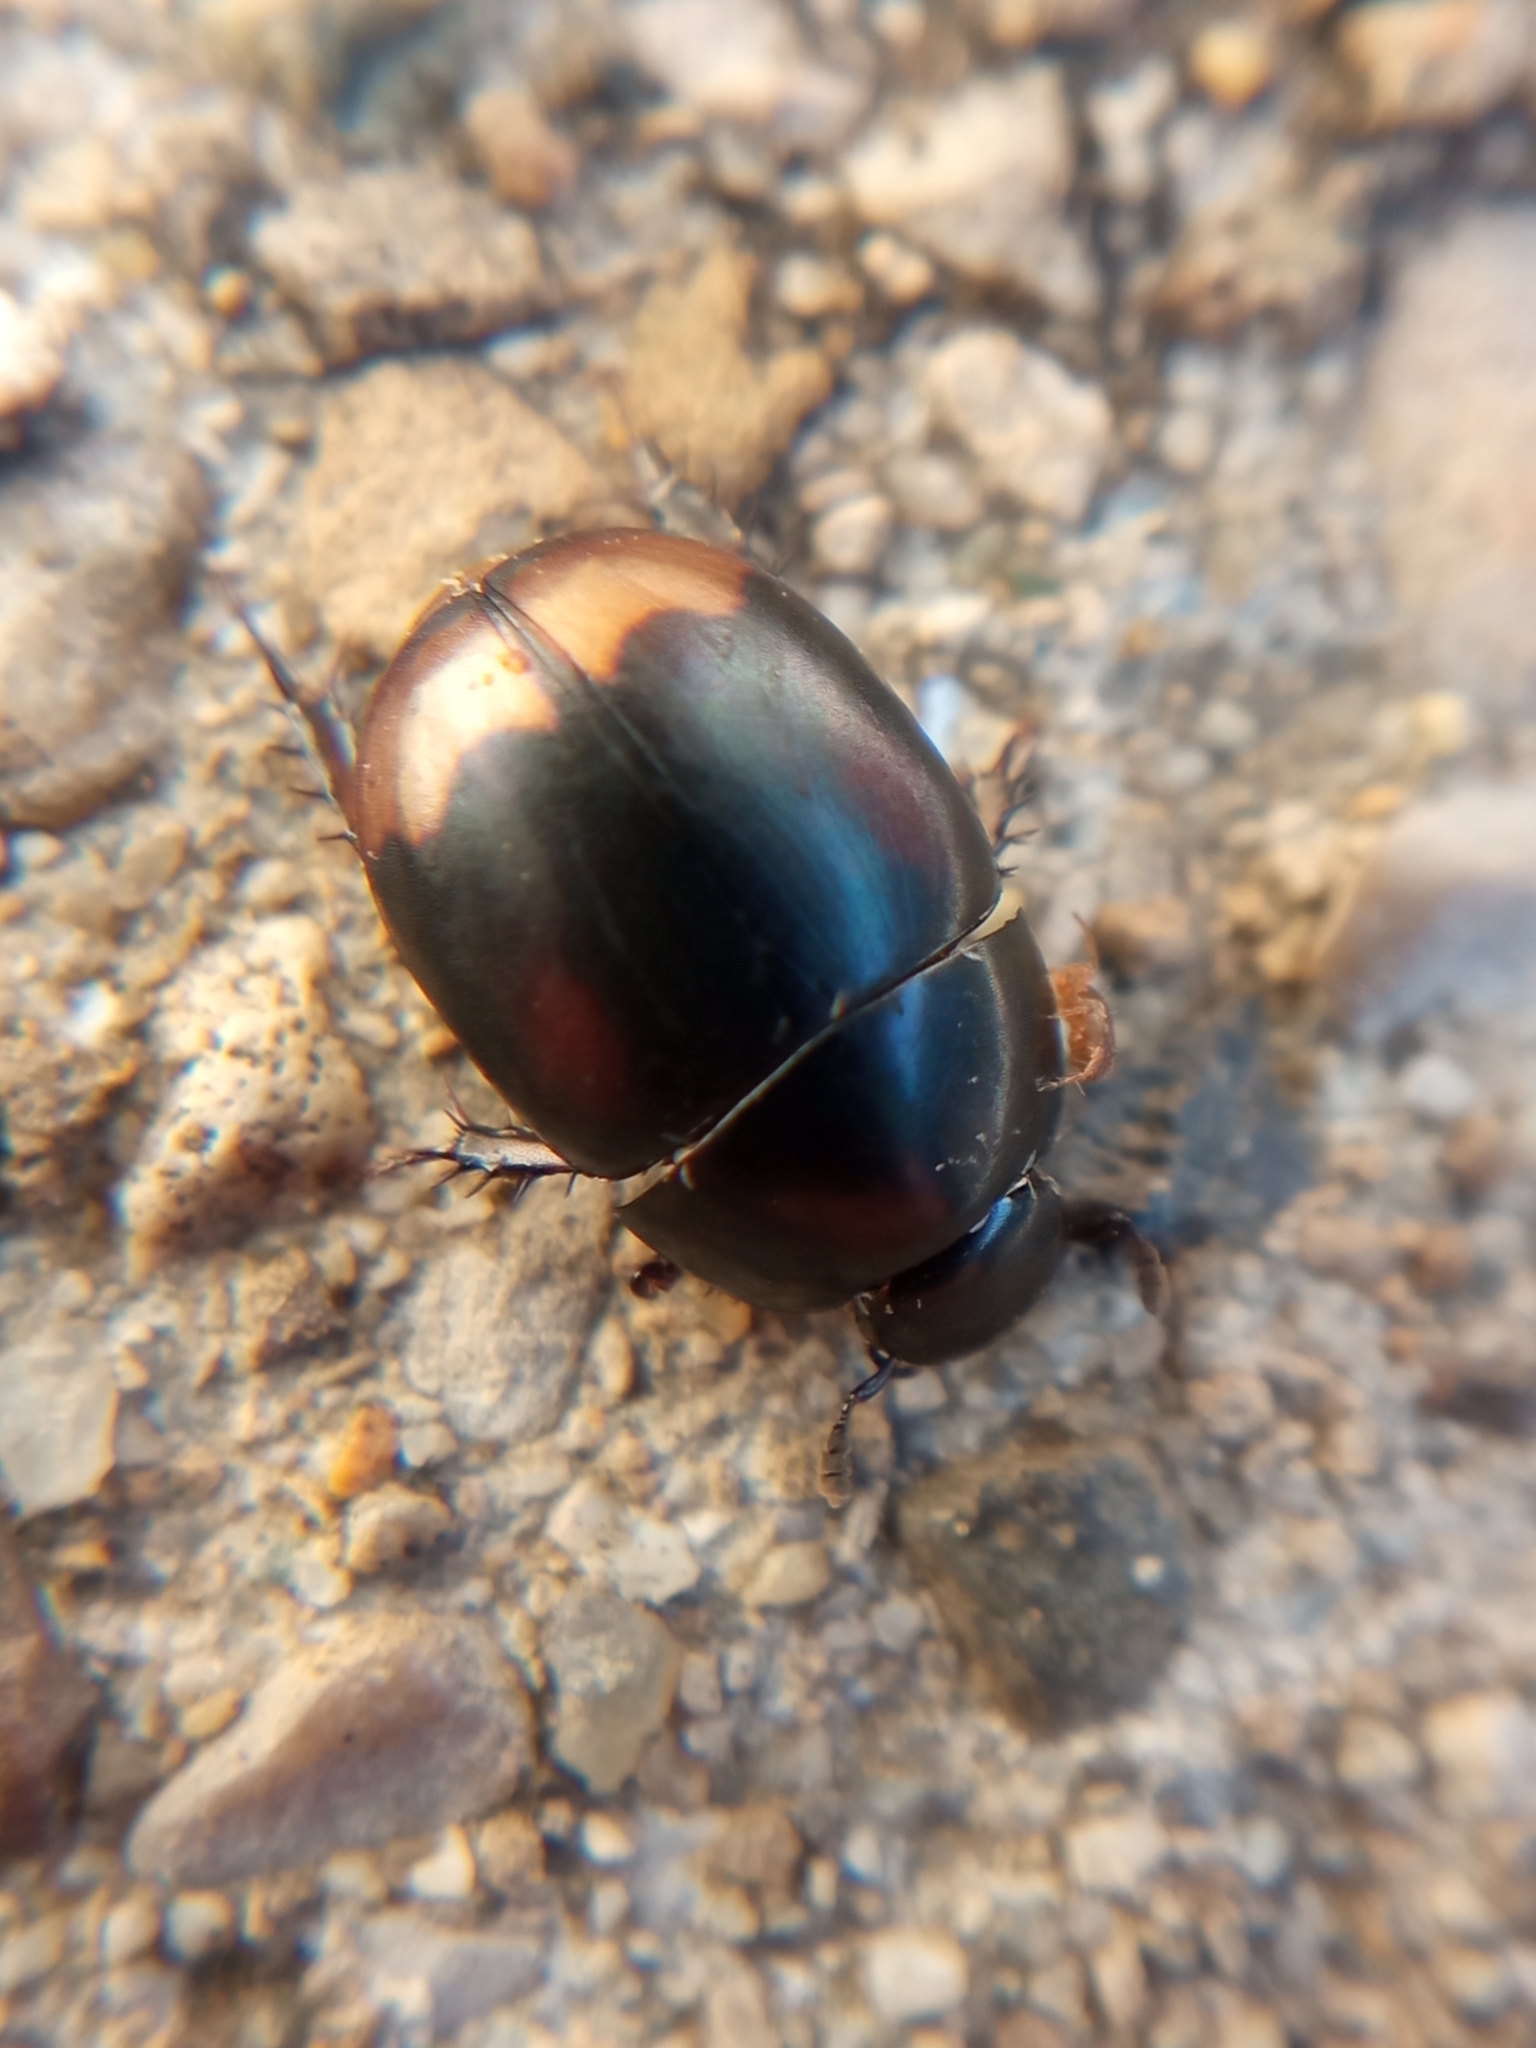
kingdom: Animalia
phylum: Arthropoda
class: Insecta
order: Coleoptera
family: Hydrophilidae
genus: Sphaeridium
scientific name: Sphaeridium lunatum
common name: Water scavenger beetle
